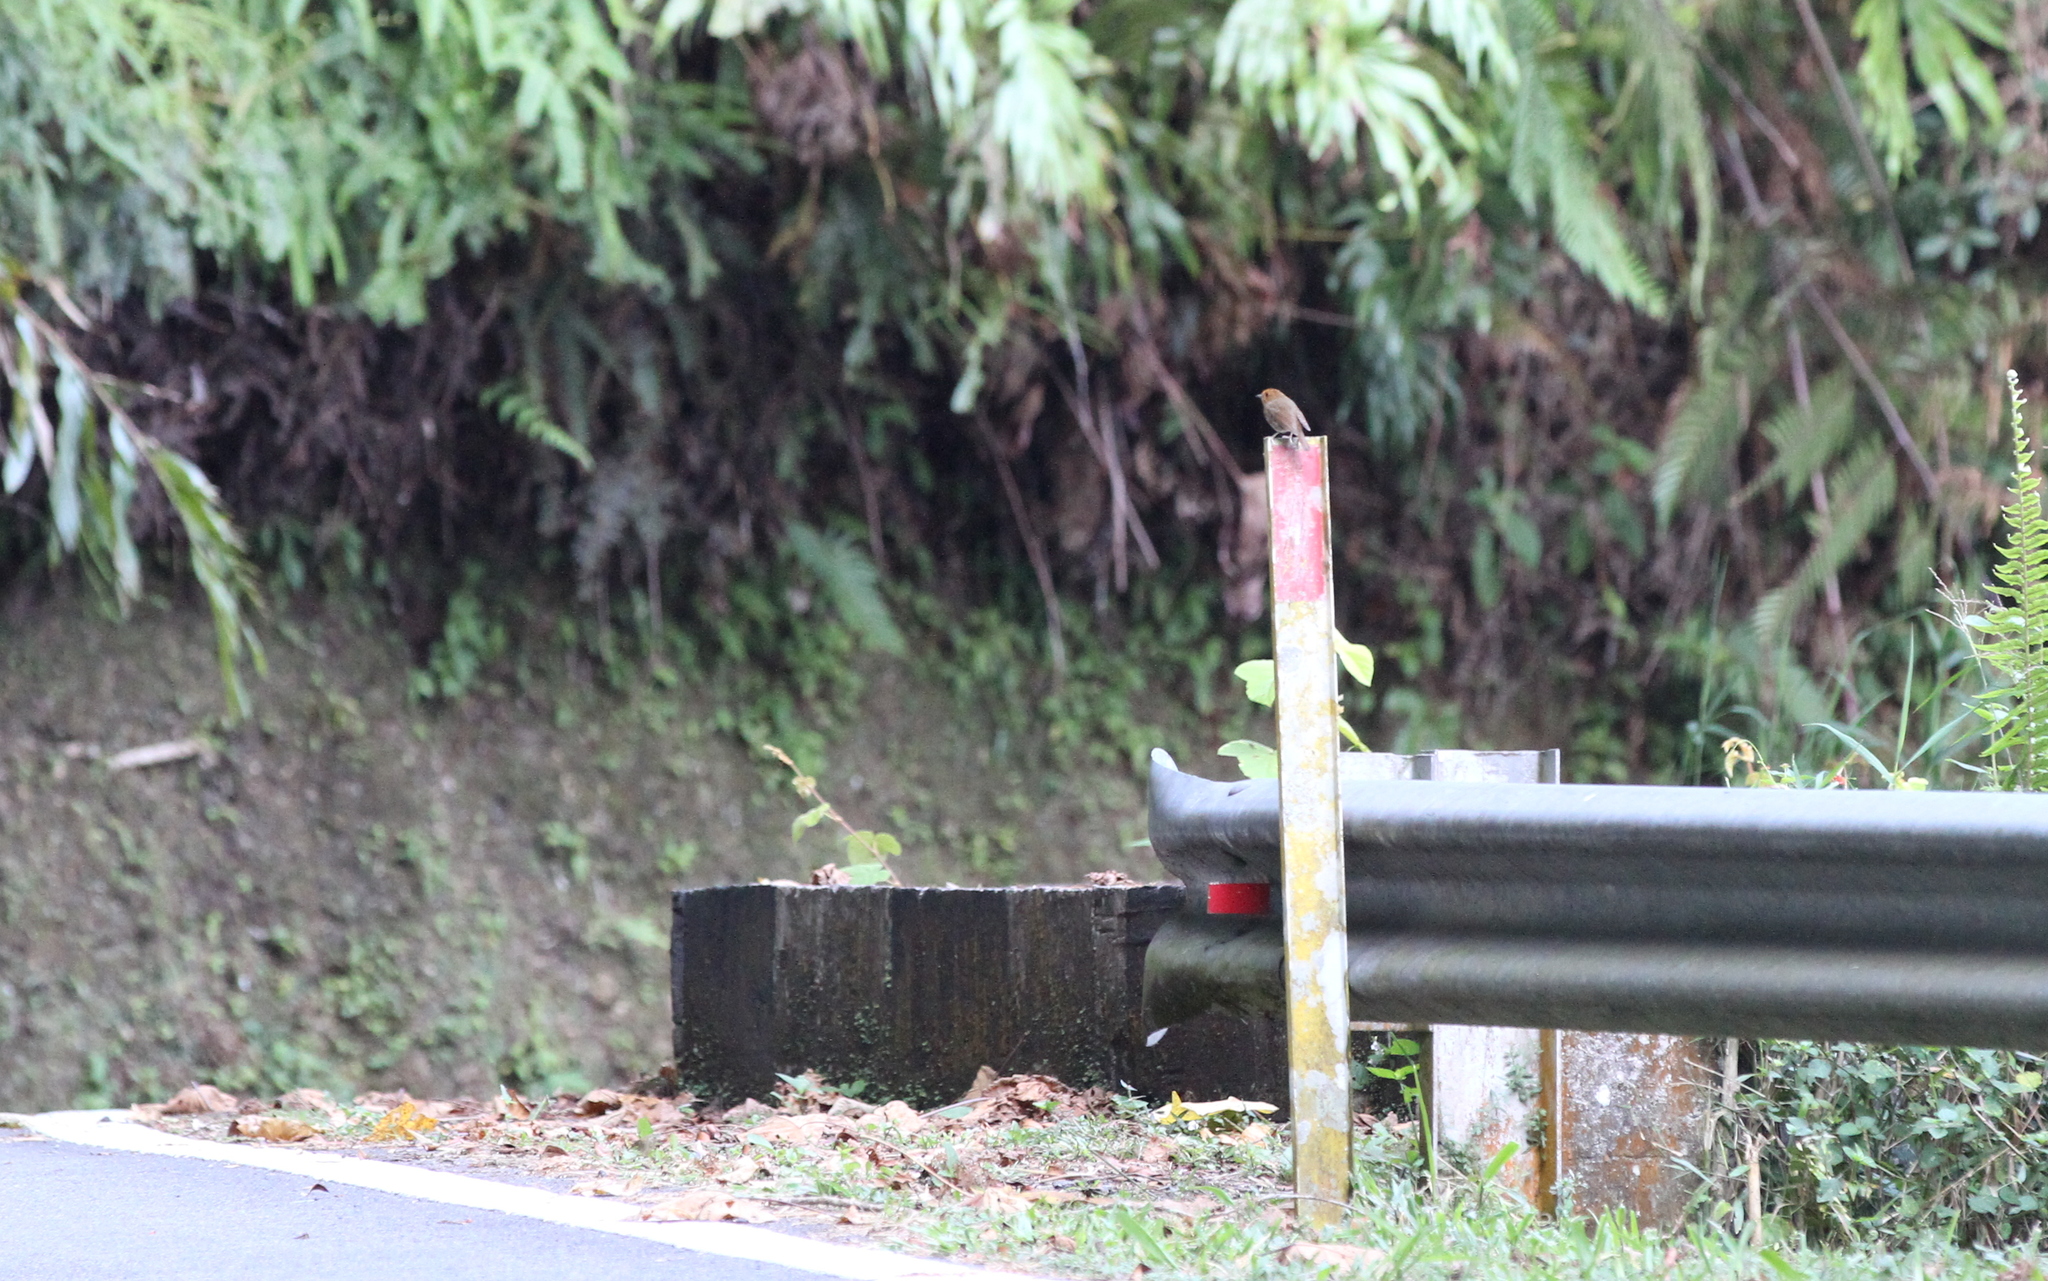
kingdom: Animalia
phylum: Chordata
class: Aves
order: Passeriformes
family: Muscicapidae
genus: Anthipes
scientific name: Anthipes solitaris
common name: Rufous-browed flycatcher
